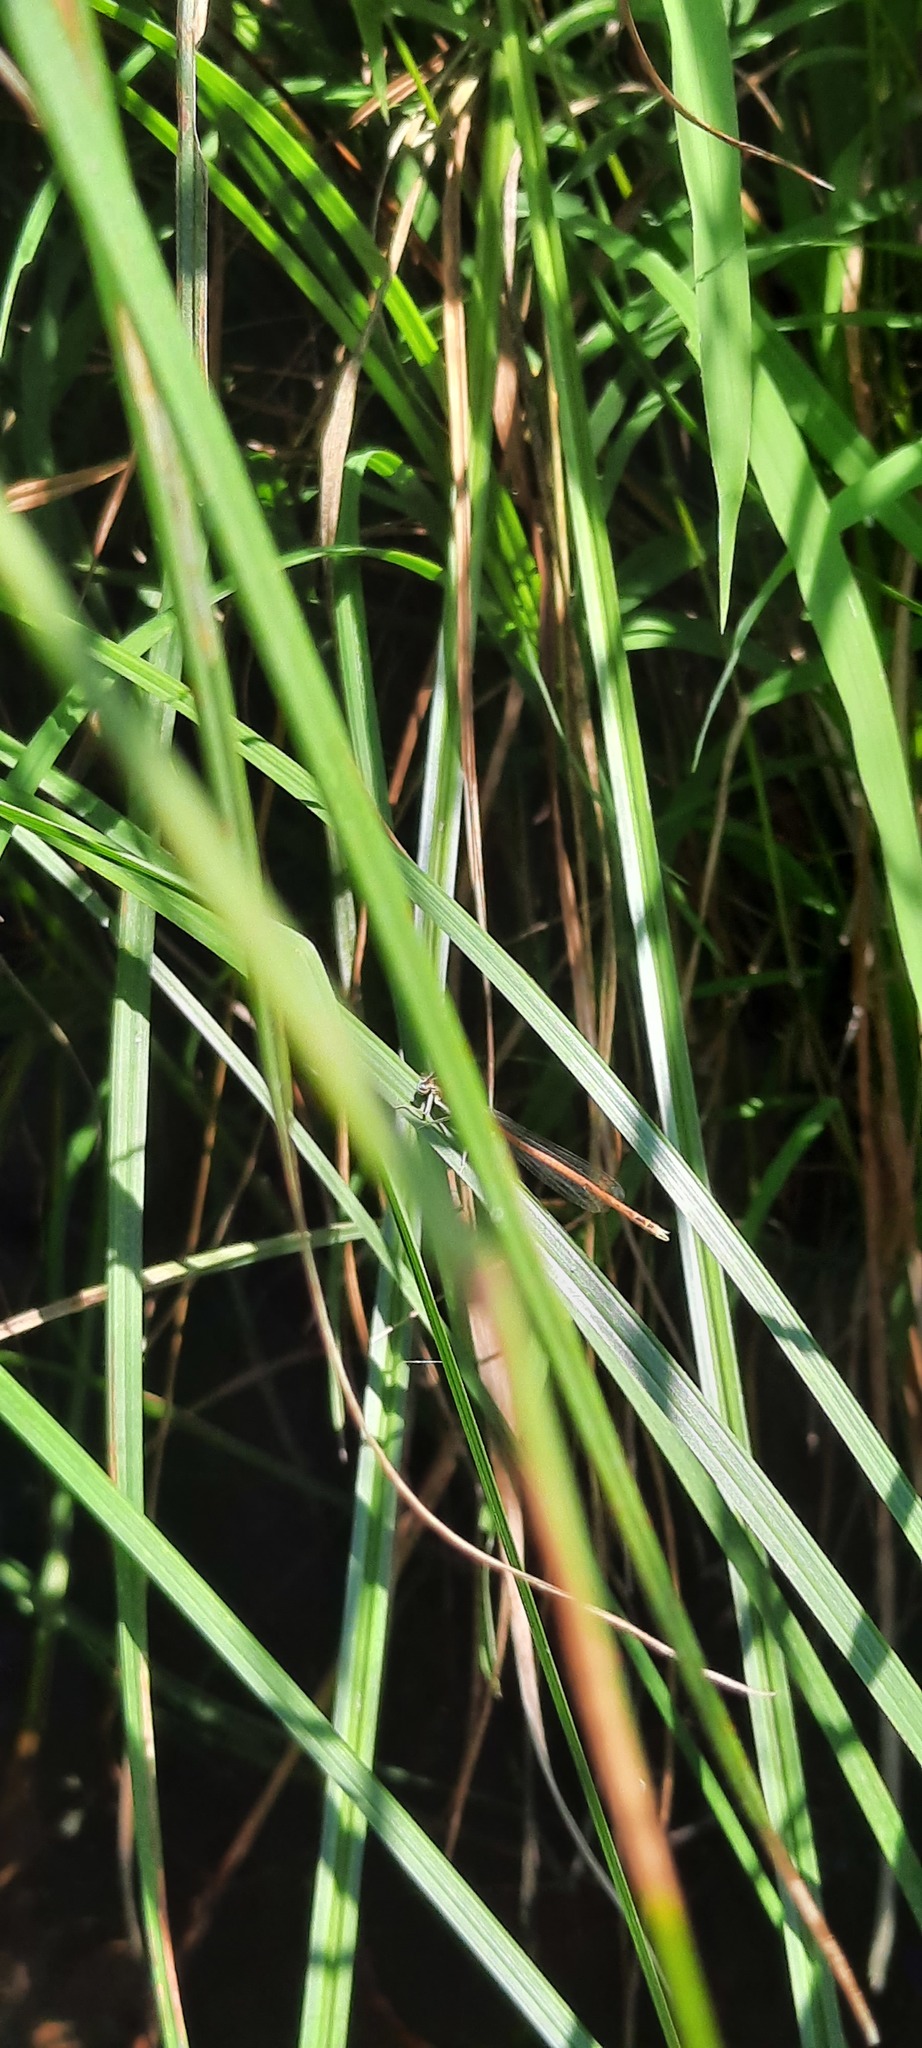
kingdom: Animalia
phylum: Arthropoda
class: Insecta
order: Odonata
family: Platycnemididae
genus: Platycnemis
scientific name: Platycnemis acutipennis
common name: Orange featherleg
